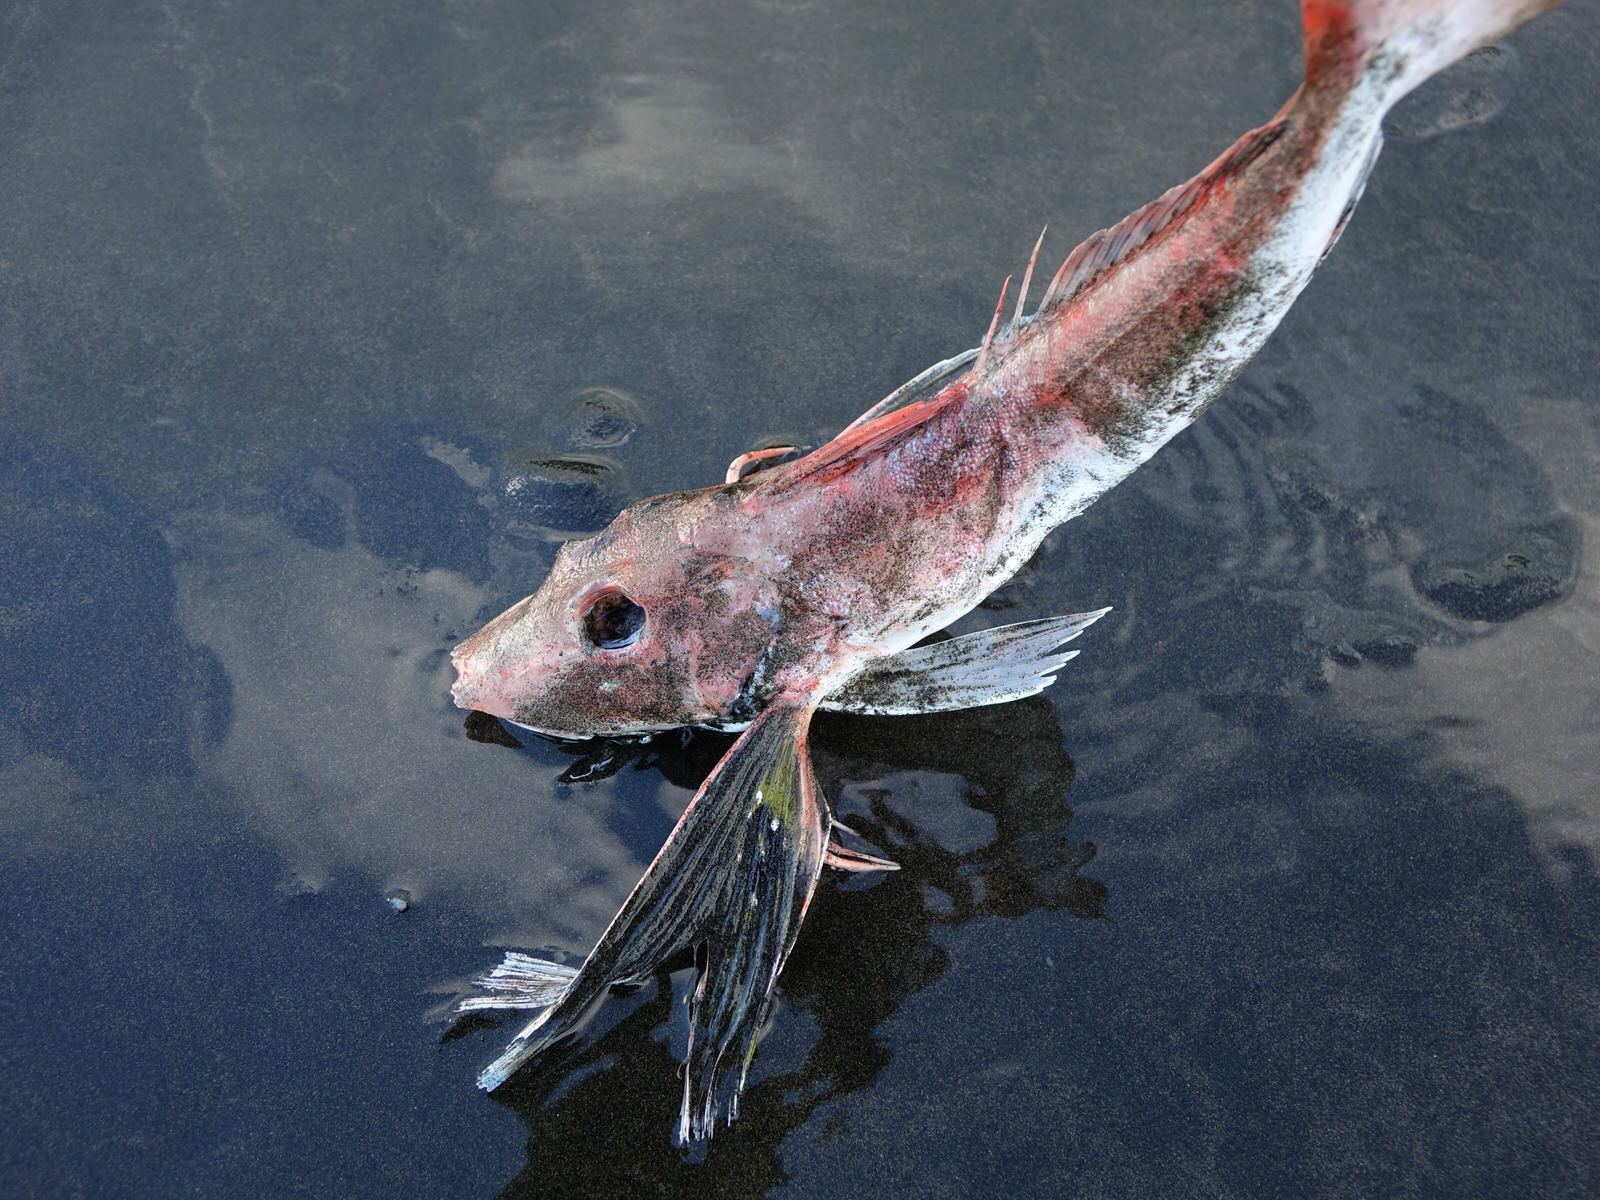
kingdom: Animalia
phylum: Chordata
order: Scorpaeniformes
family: Triglidae
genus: Chelidonichthys
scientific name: Chelidonichthys kumu
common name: Bluefin gurnard
